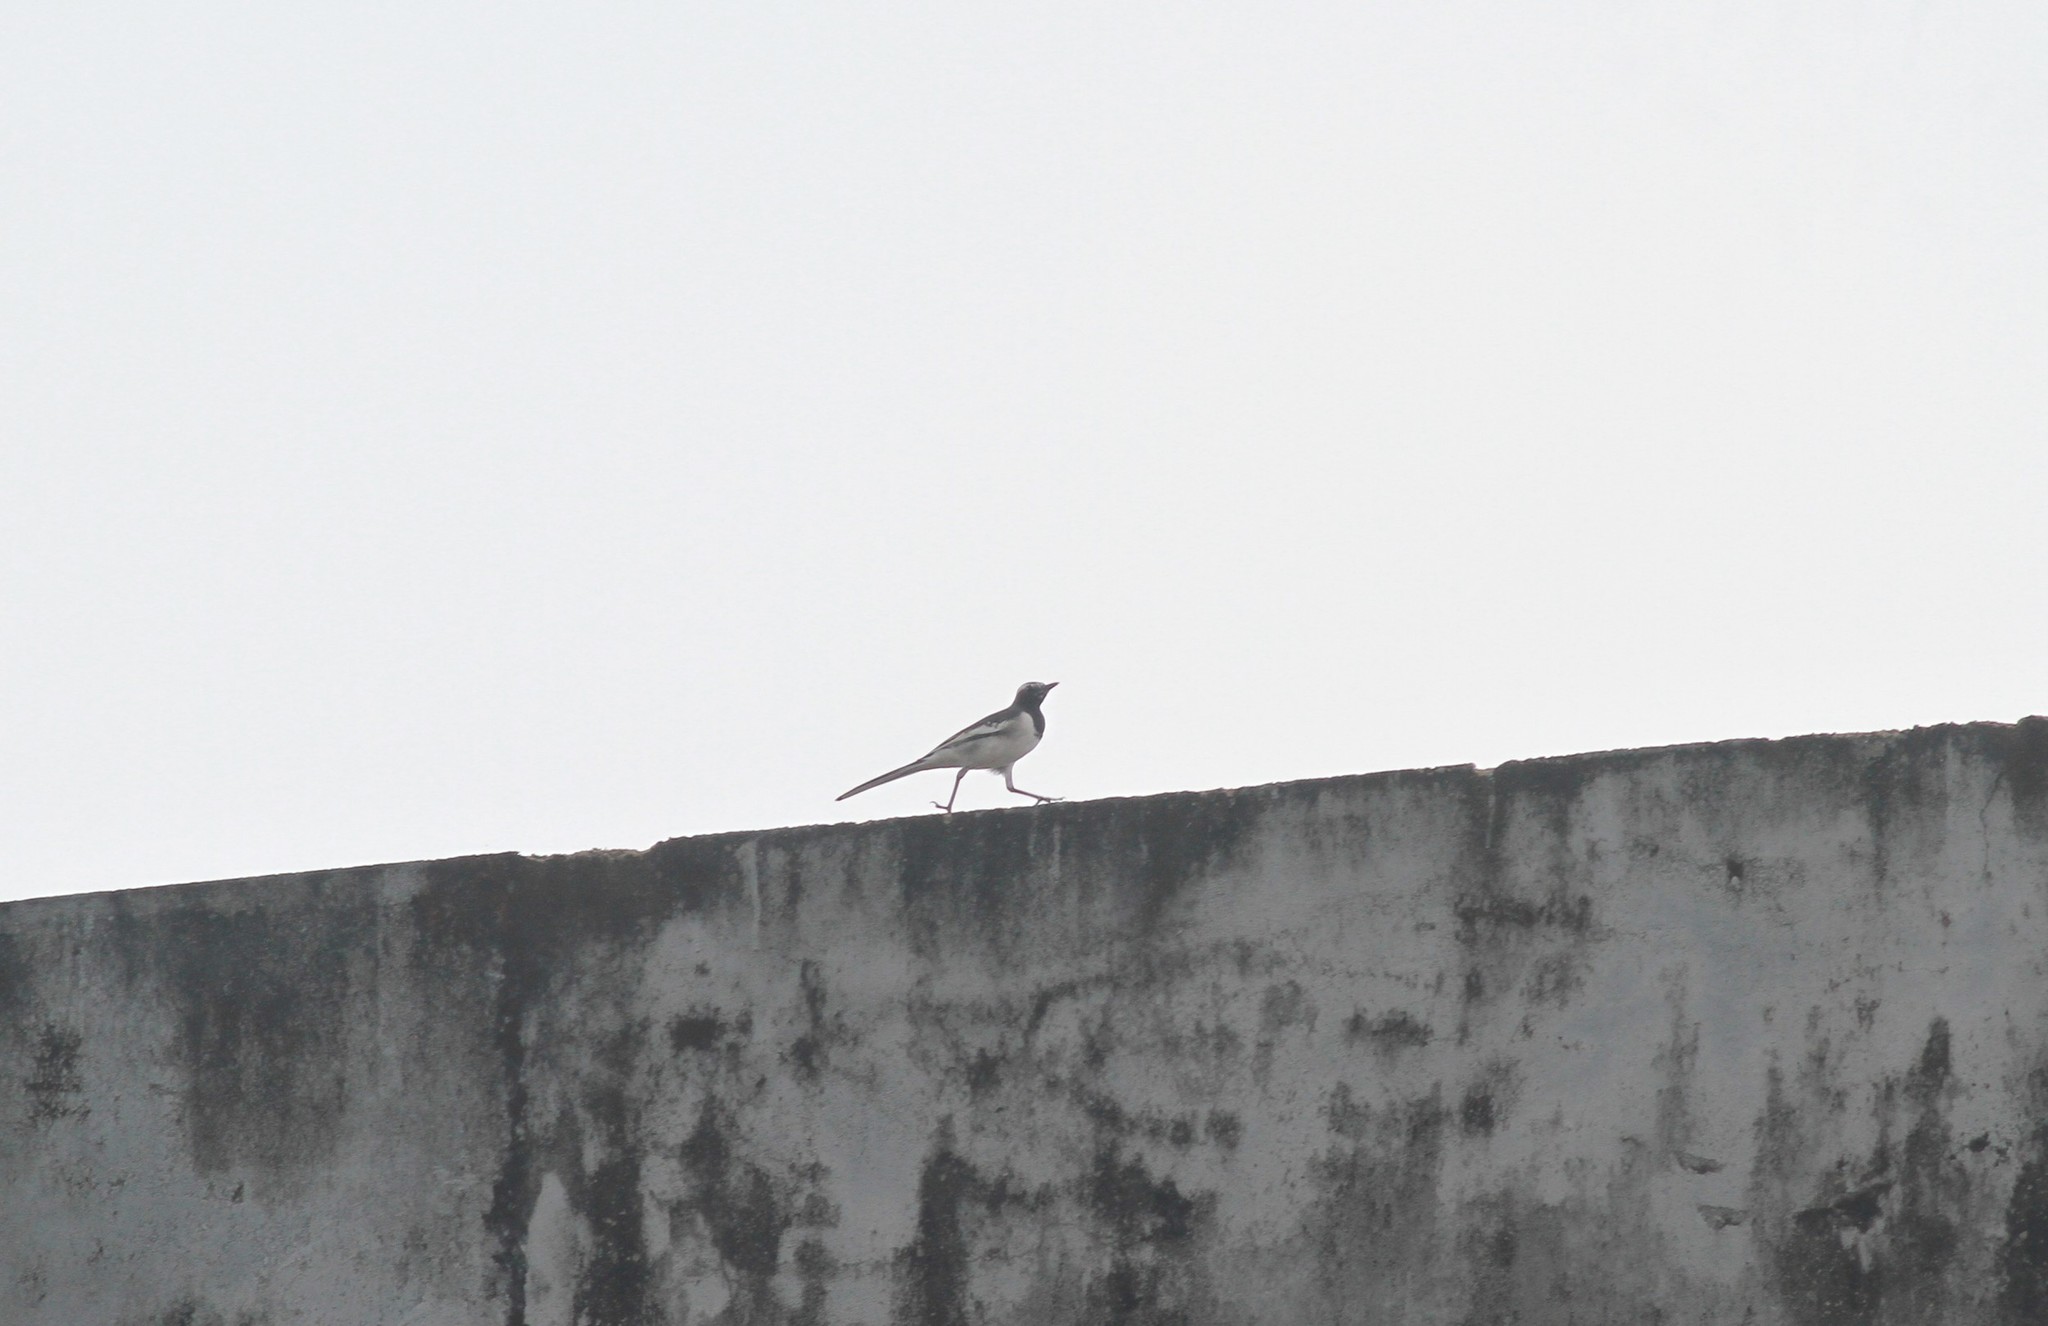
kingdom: Animalia
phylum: Chordata
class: Aves
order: Passeriformes
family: Motacillidae
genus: Motacilla
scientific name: Motacilla maderaspatensis
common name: White-browed wagtail
